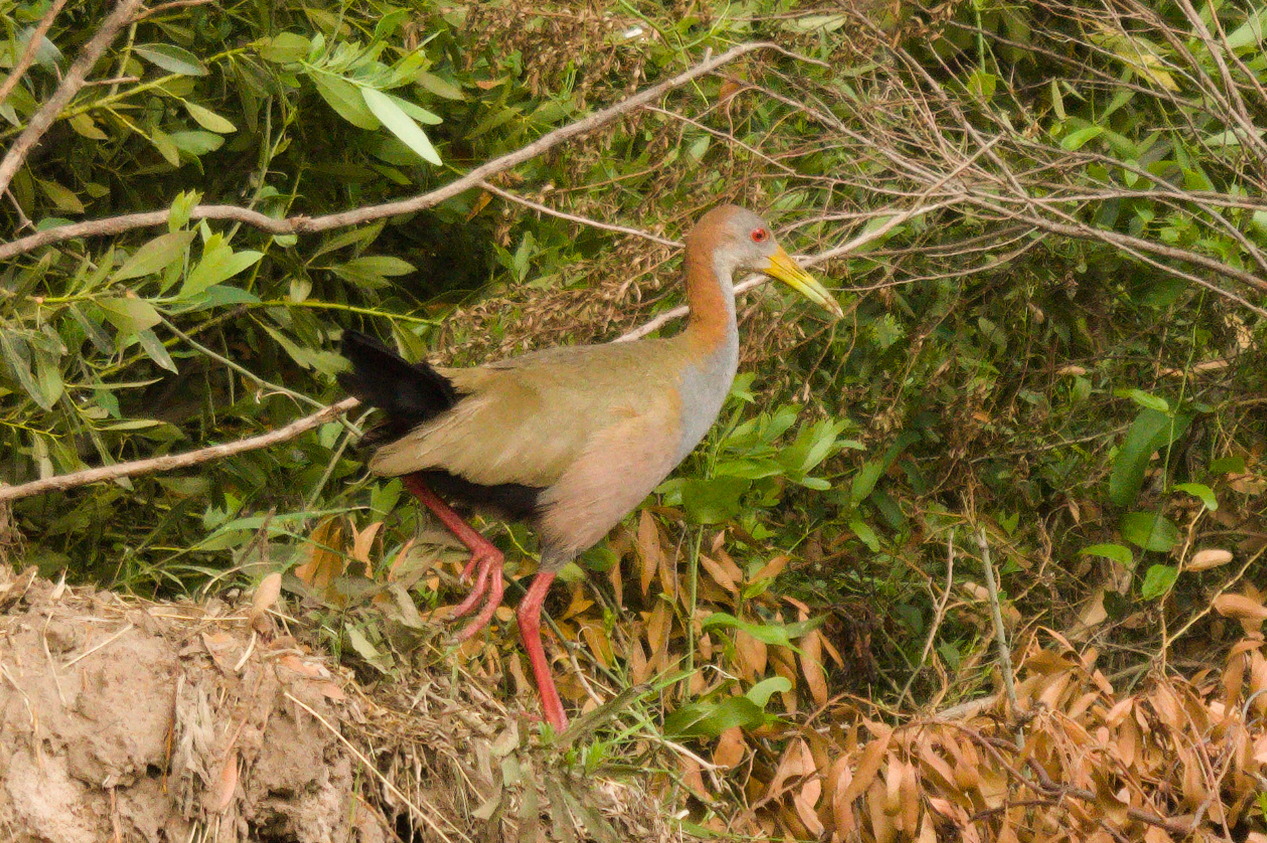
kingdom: Animalia
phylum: Chordata
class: Aves
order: Gruiformes
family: Rallidae
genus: Aramides
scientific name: Aramides ypecaha
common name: Giant wood rail
